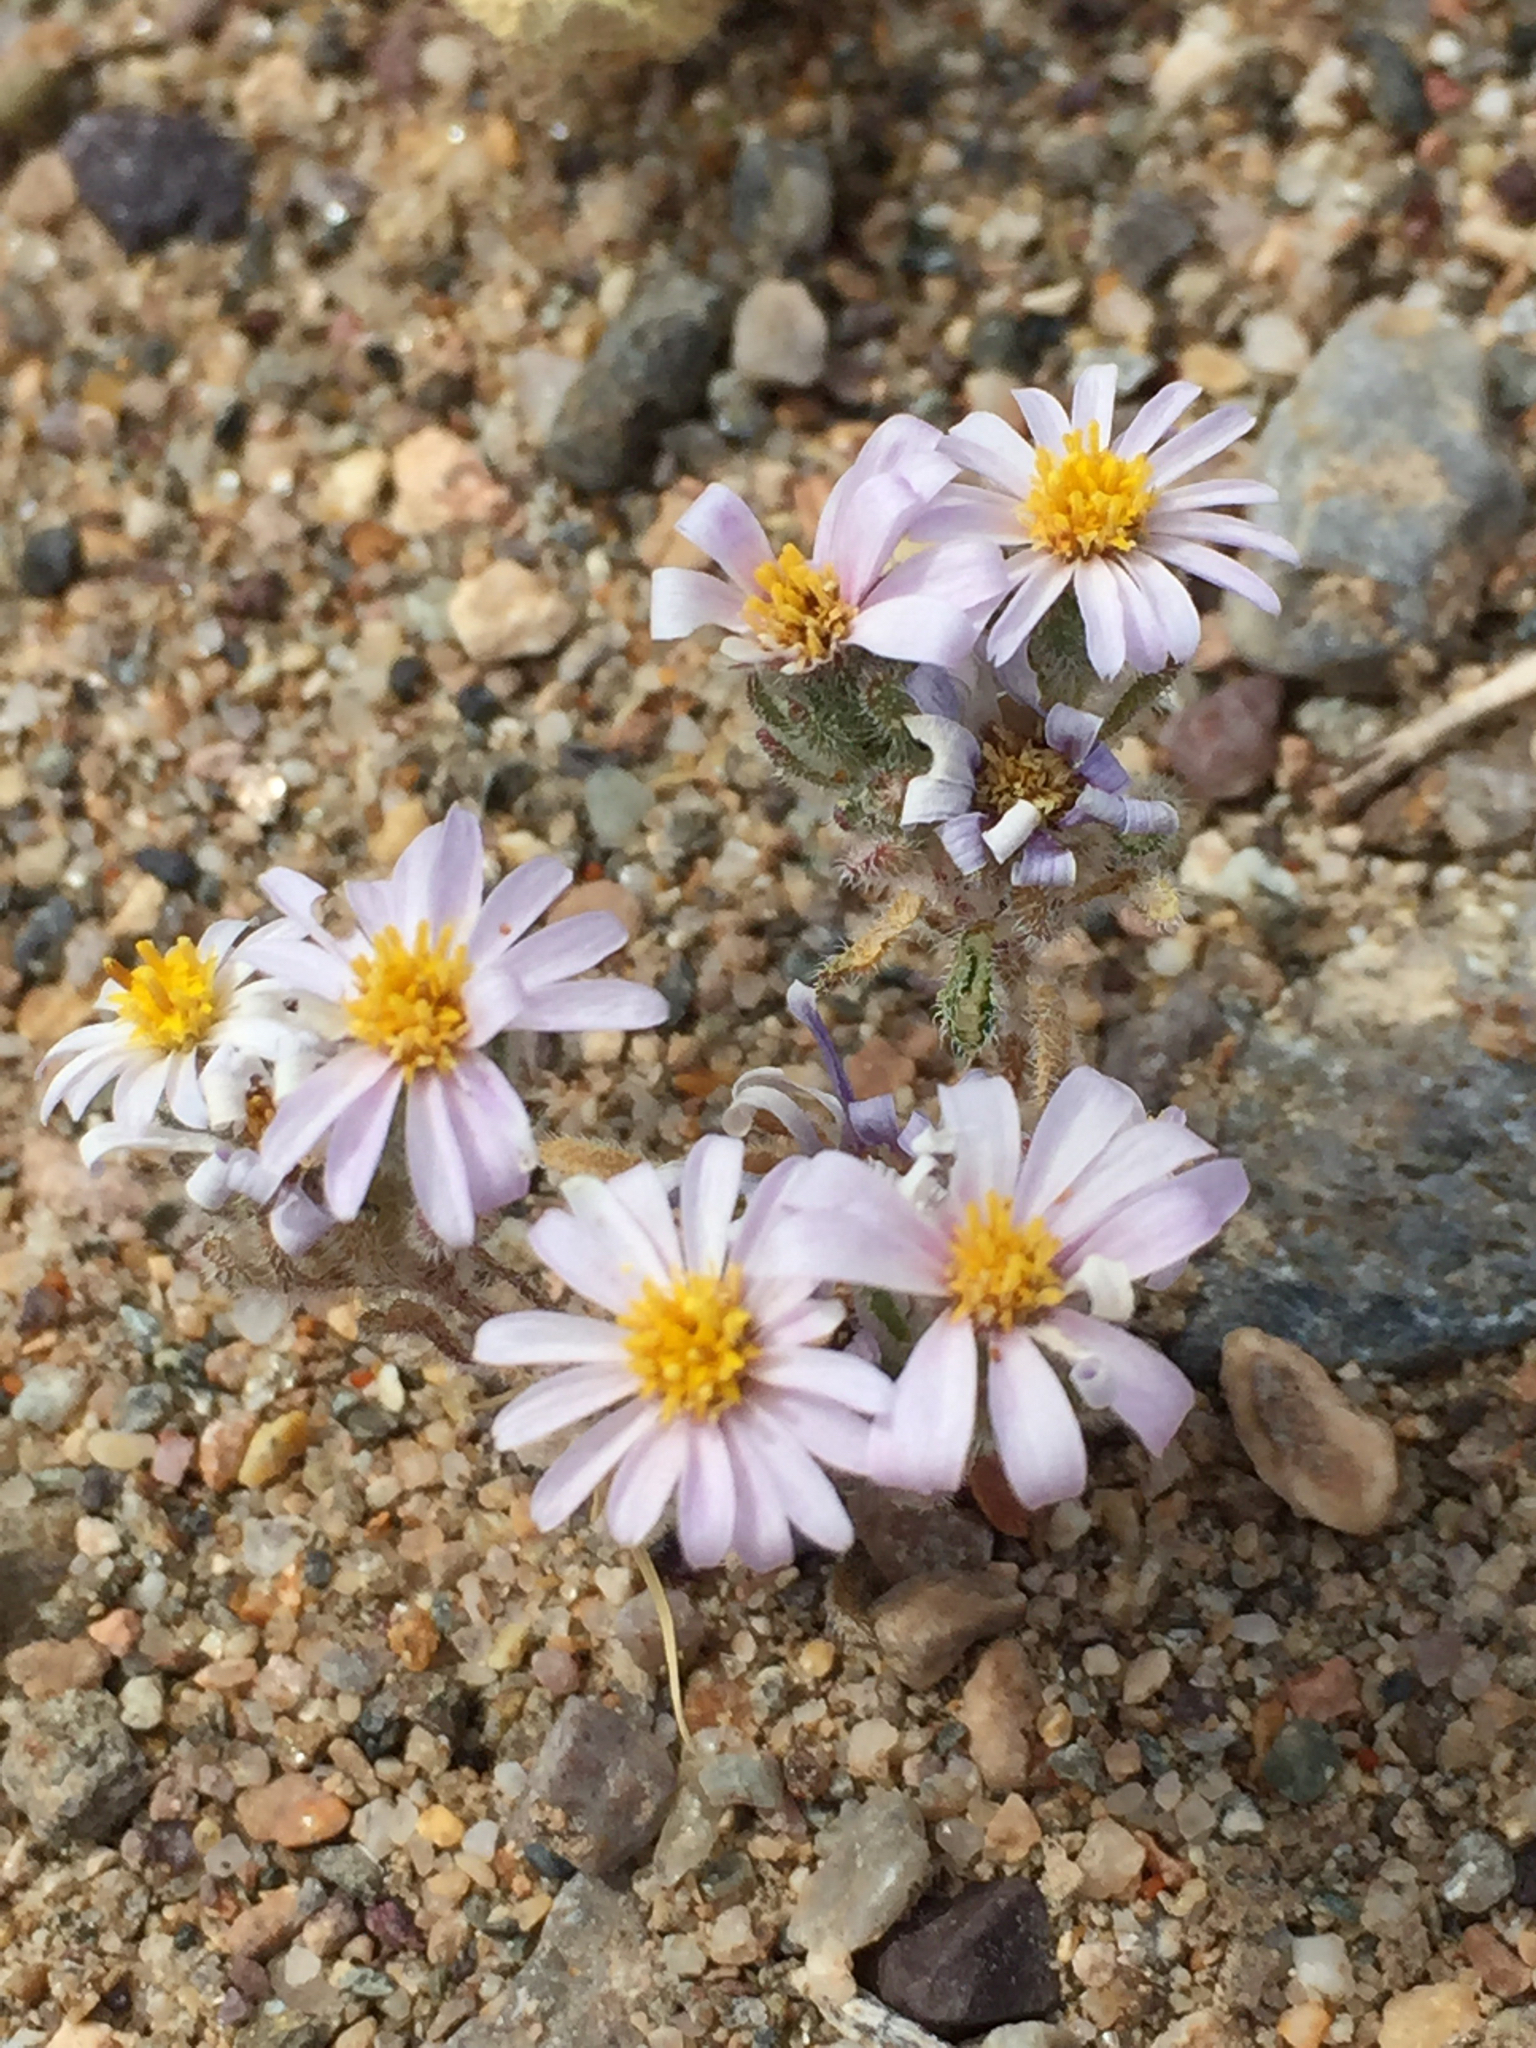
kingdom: Plantae
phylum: Tracheophyta
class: Magnoliopsida
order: Asterales
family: Asteraceae
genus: Monoptilon
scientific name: Monoptilon bellioides
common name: Bristly desertstar
